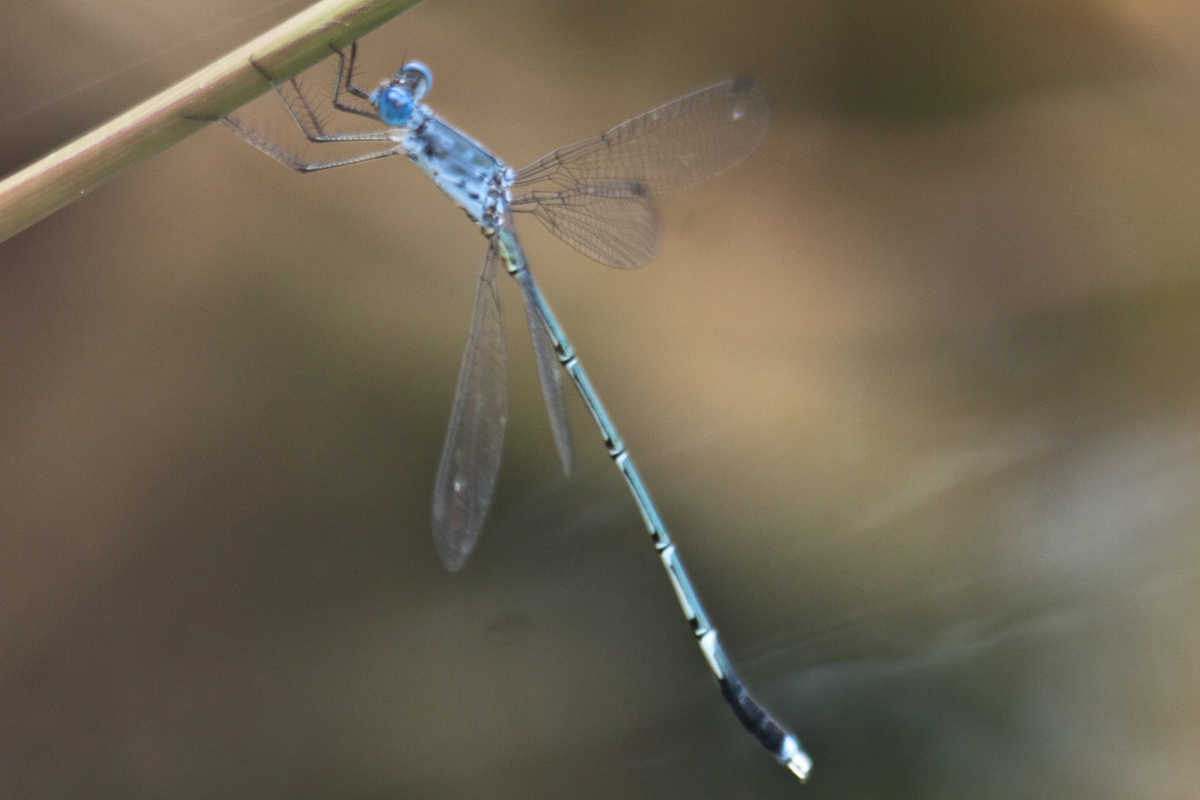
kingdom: Animalia
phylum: Arthropoda
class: Insecta
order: Odonata
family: Lestidae
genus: Lestes
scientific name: Lestes praemorsus
